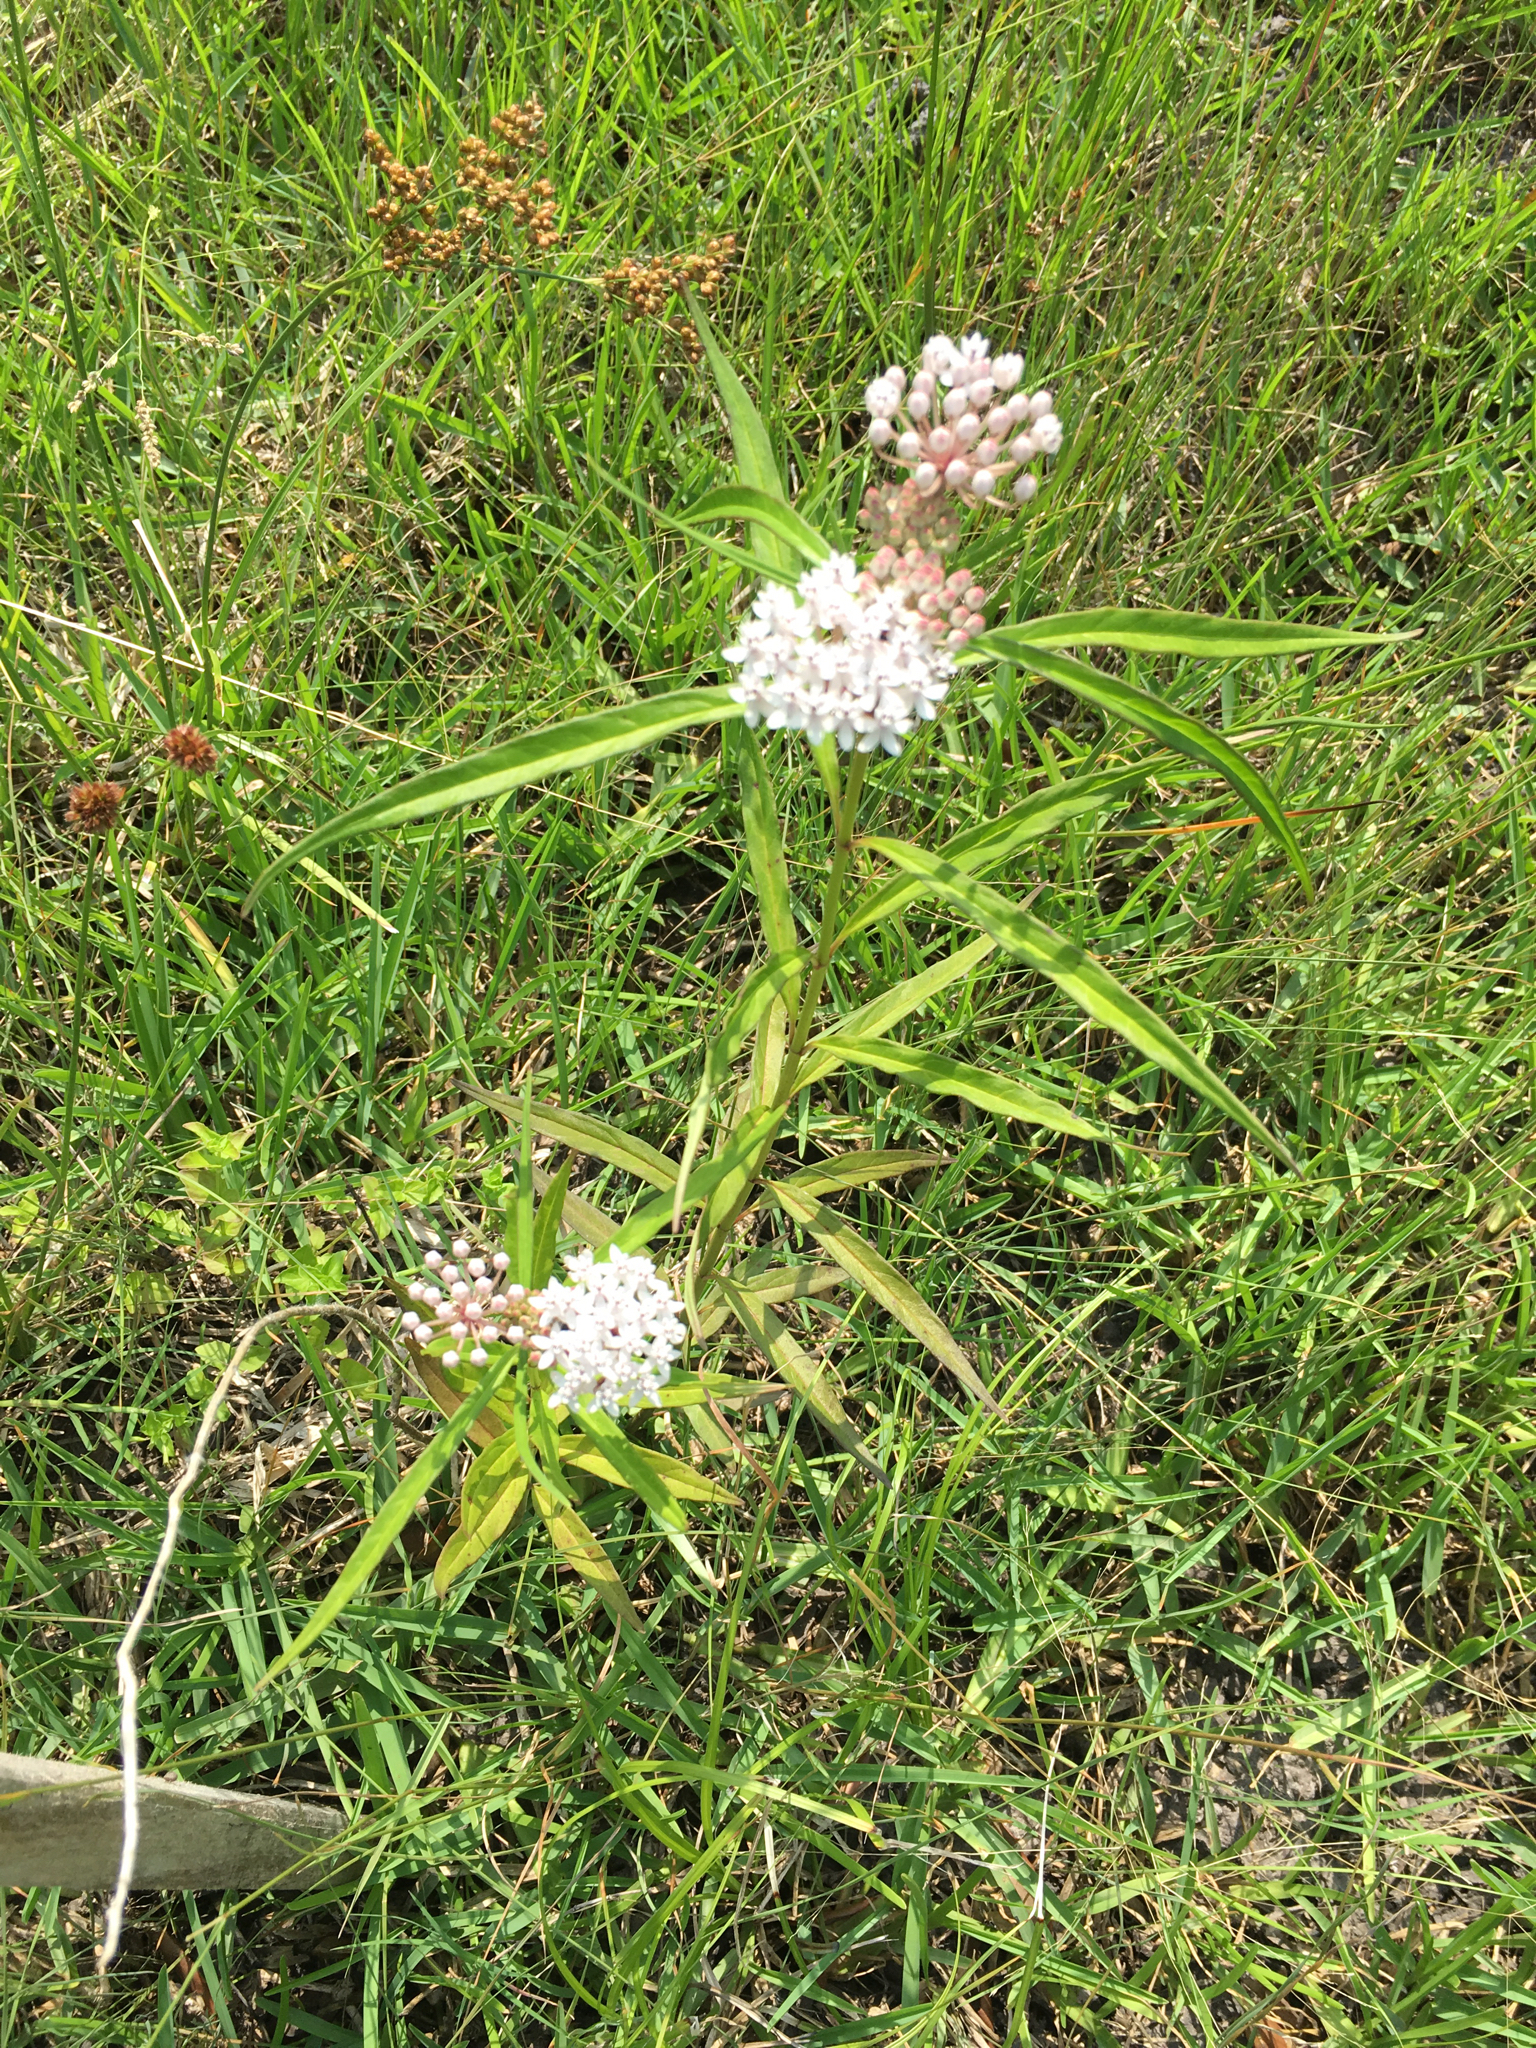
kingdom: Plantae
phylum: Tracheophyta
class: Magnoliopsida
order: Gentianales
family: Apocynaceae
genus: Asclepias
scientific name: Asclepias perennis
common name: Smooth-seed milkweed
